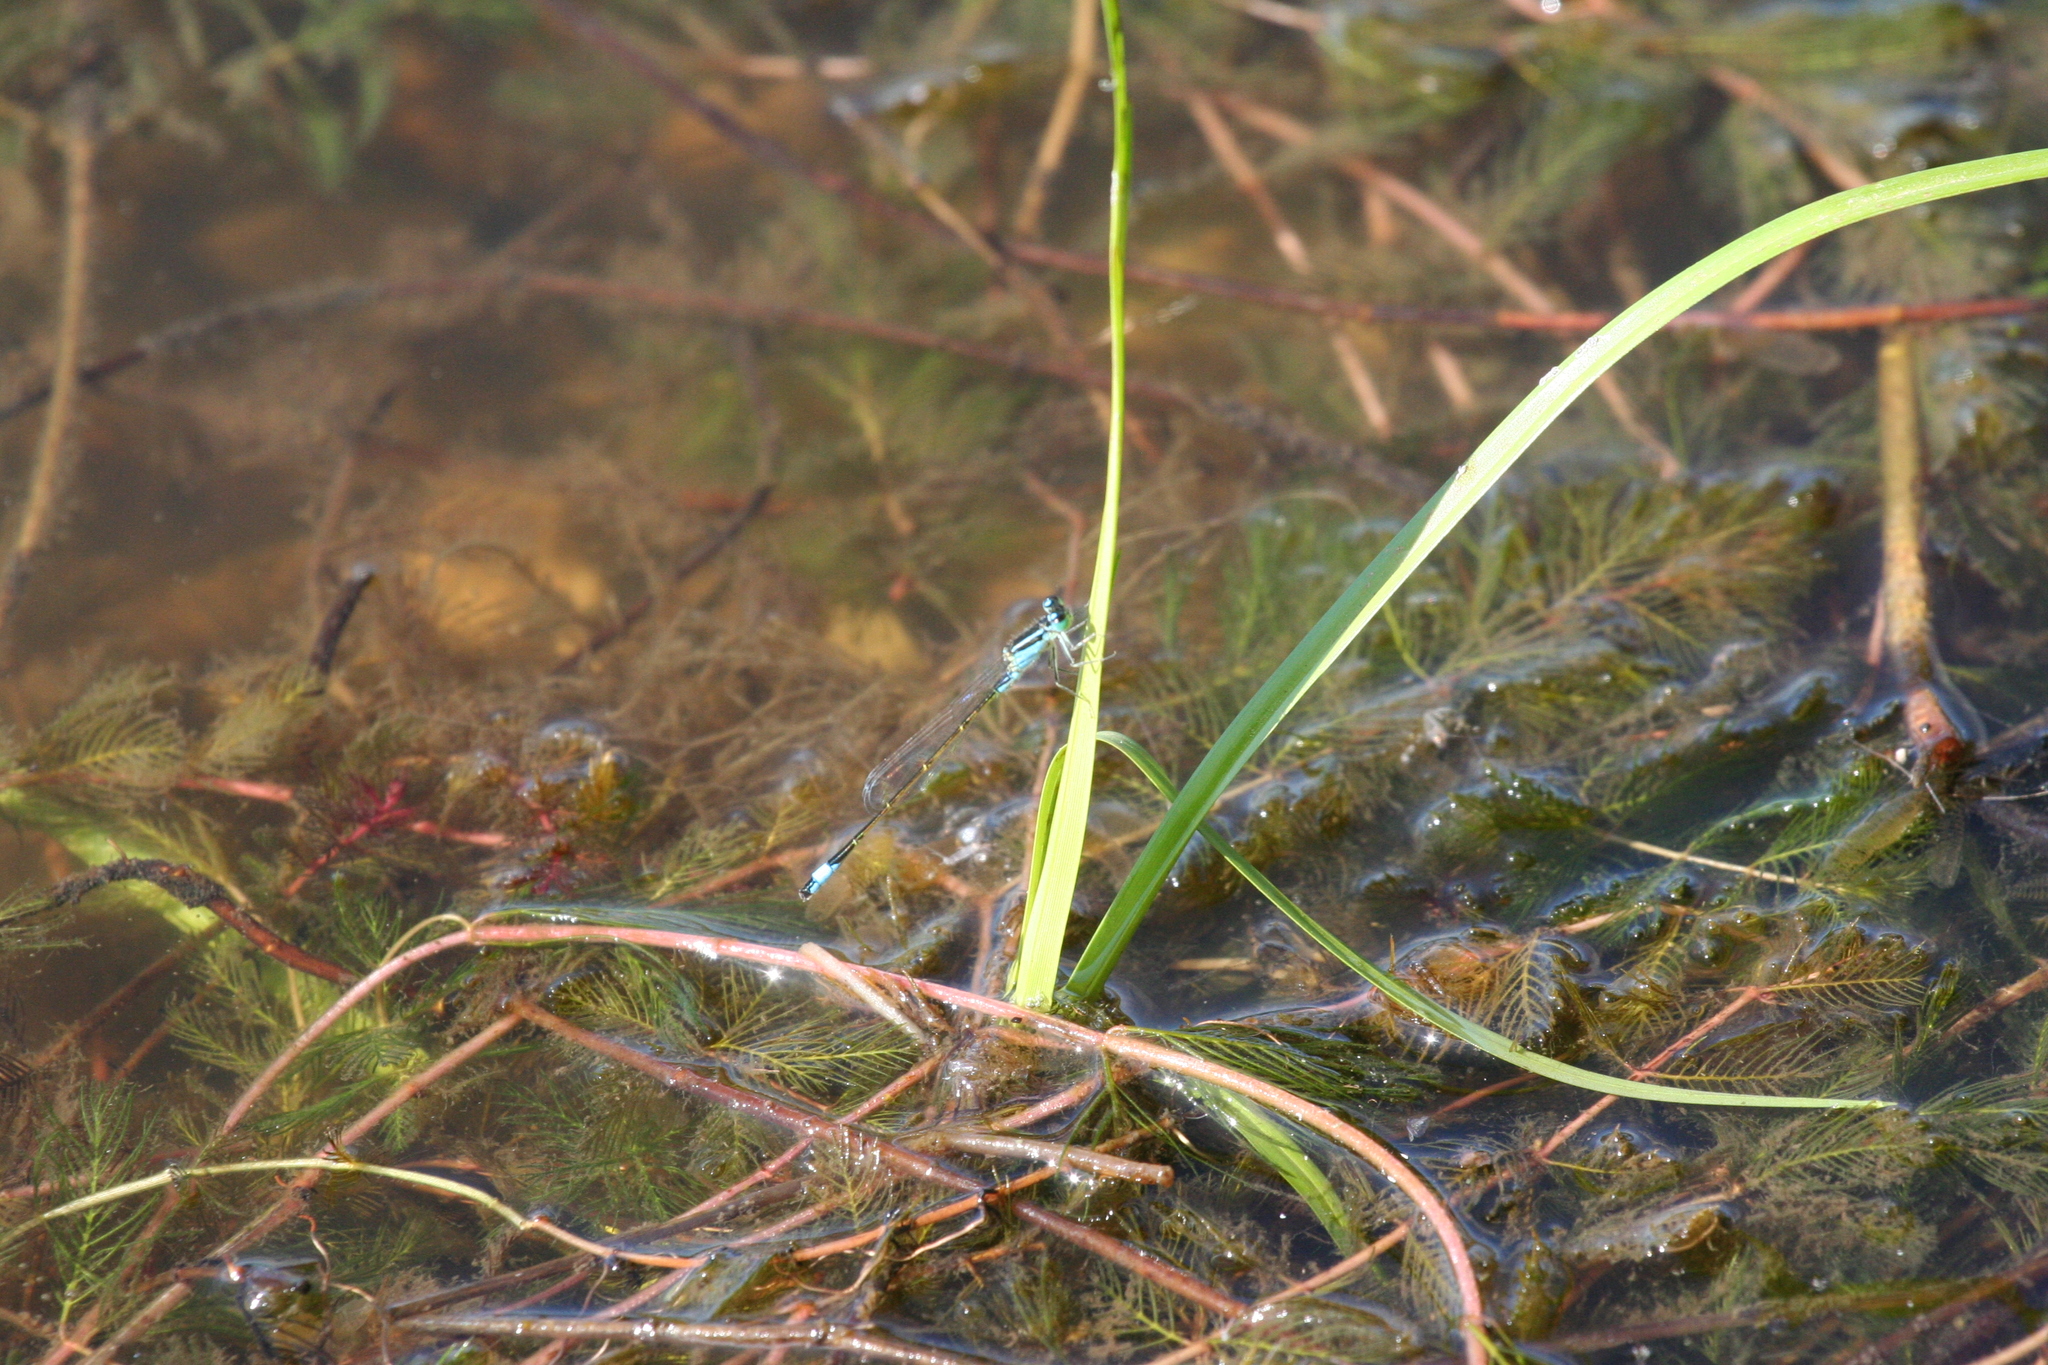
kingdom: Animalia
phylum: Arthropoda
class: Insecta
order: Odonata
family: Coenagrionidae
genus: Ischnura
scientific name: Ischnura elegans
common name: Blue-tailed damselfly
